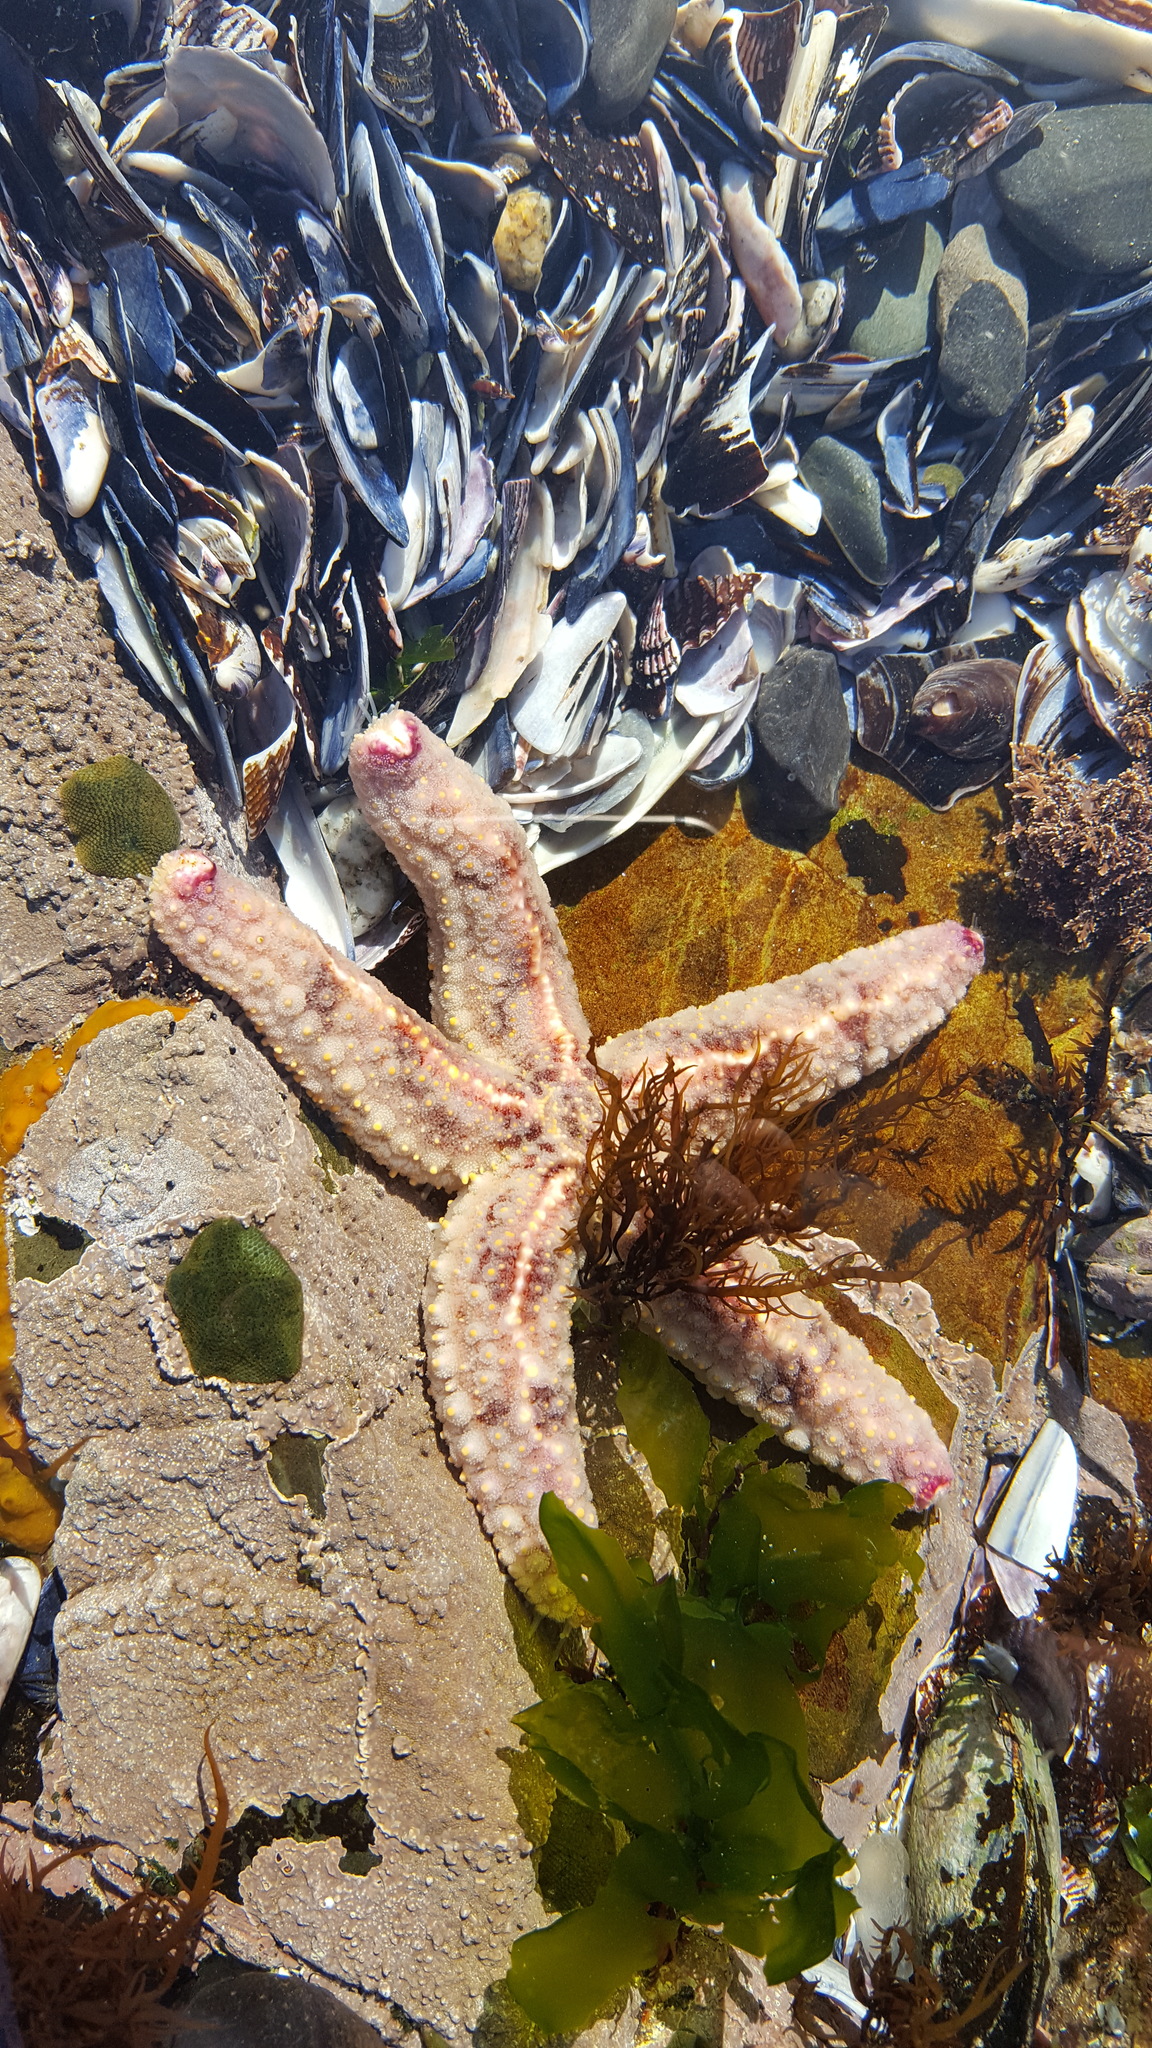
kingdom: Animalia
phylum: Echinodermata
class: Asteroidea
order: Forcipulatida
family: Asteriidae
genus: Marthasterias
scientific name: Marthasterias africana
